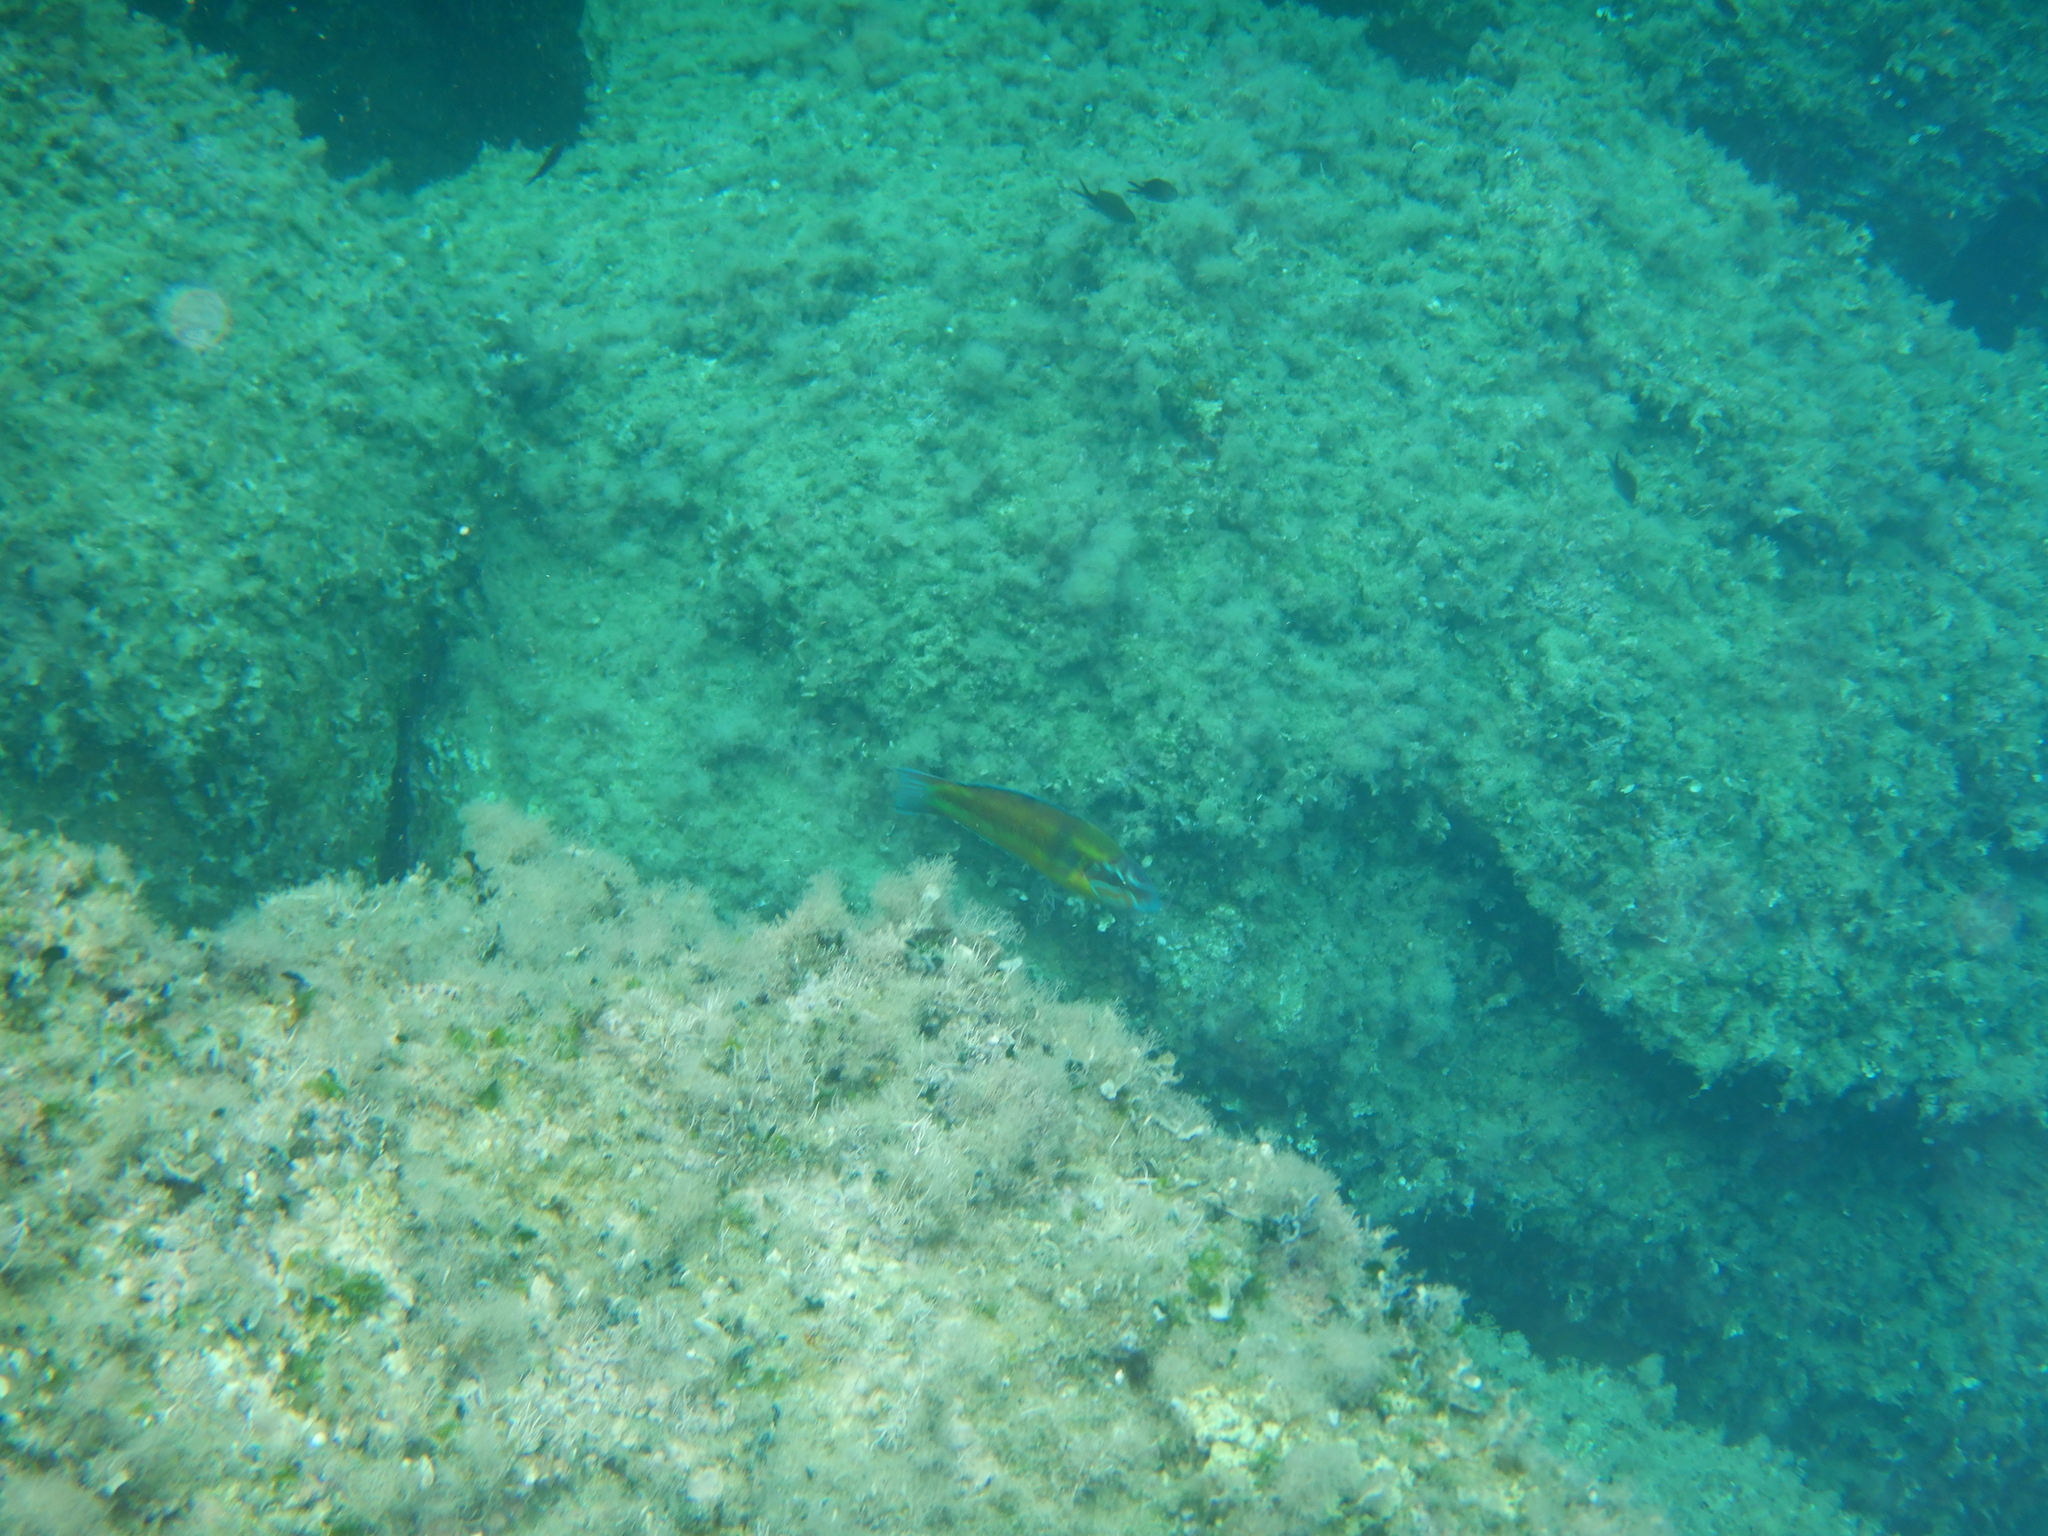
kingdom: Animalia
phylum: Chordata
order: Perciformes
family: Labridae
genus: Thalassoma
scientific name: Thalassoma pavo
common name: Ornate wrasse
